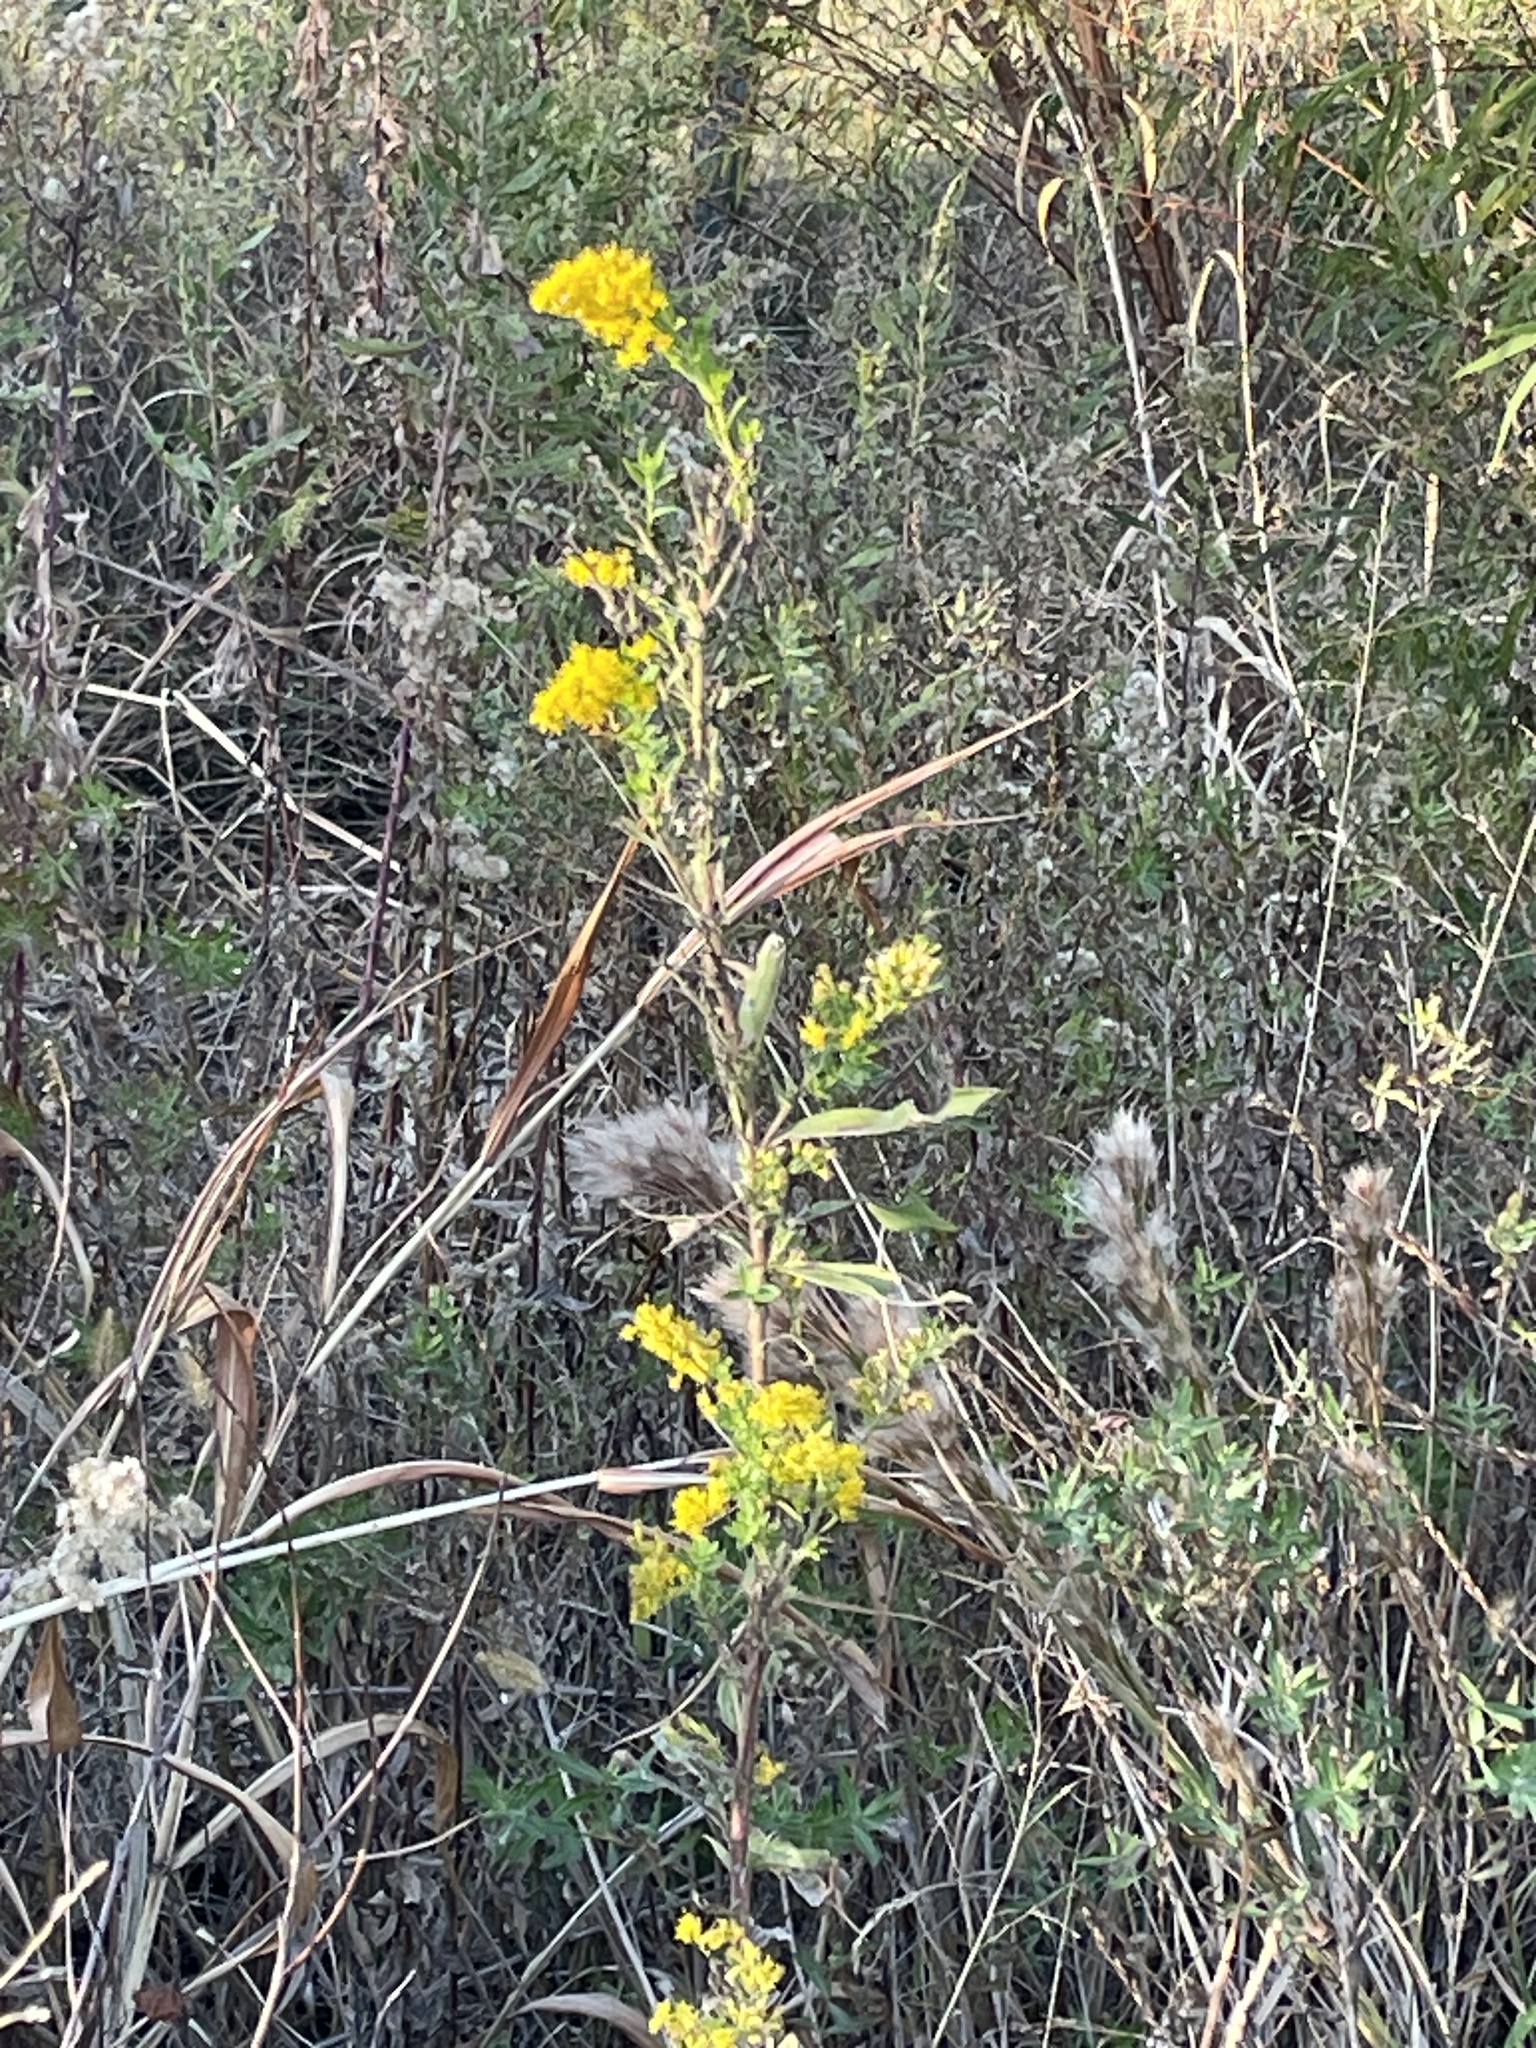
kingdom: Plantae
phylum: Tracheophyta
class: Magnoliopsida
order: Asterales
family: Asteraceae
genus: Solidago
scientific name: Solidago altissima
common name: Late goldenrod
